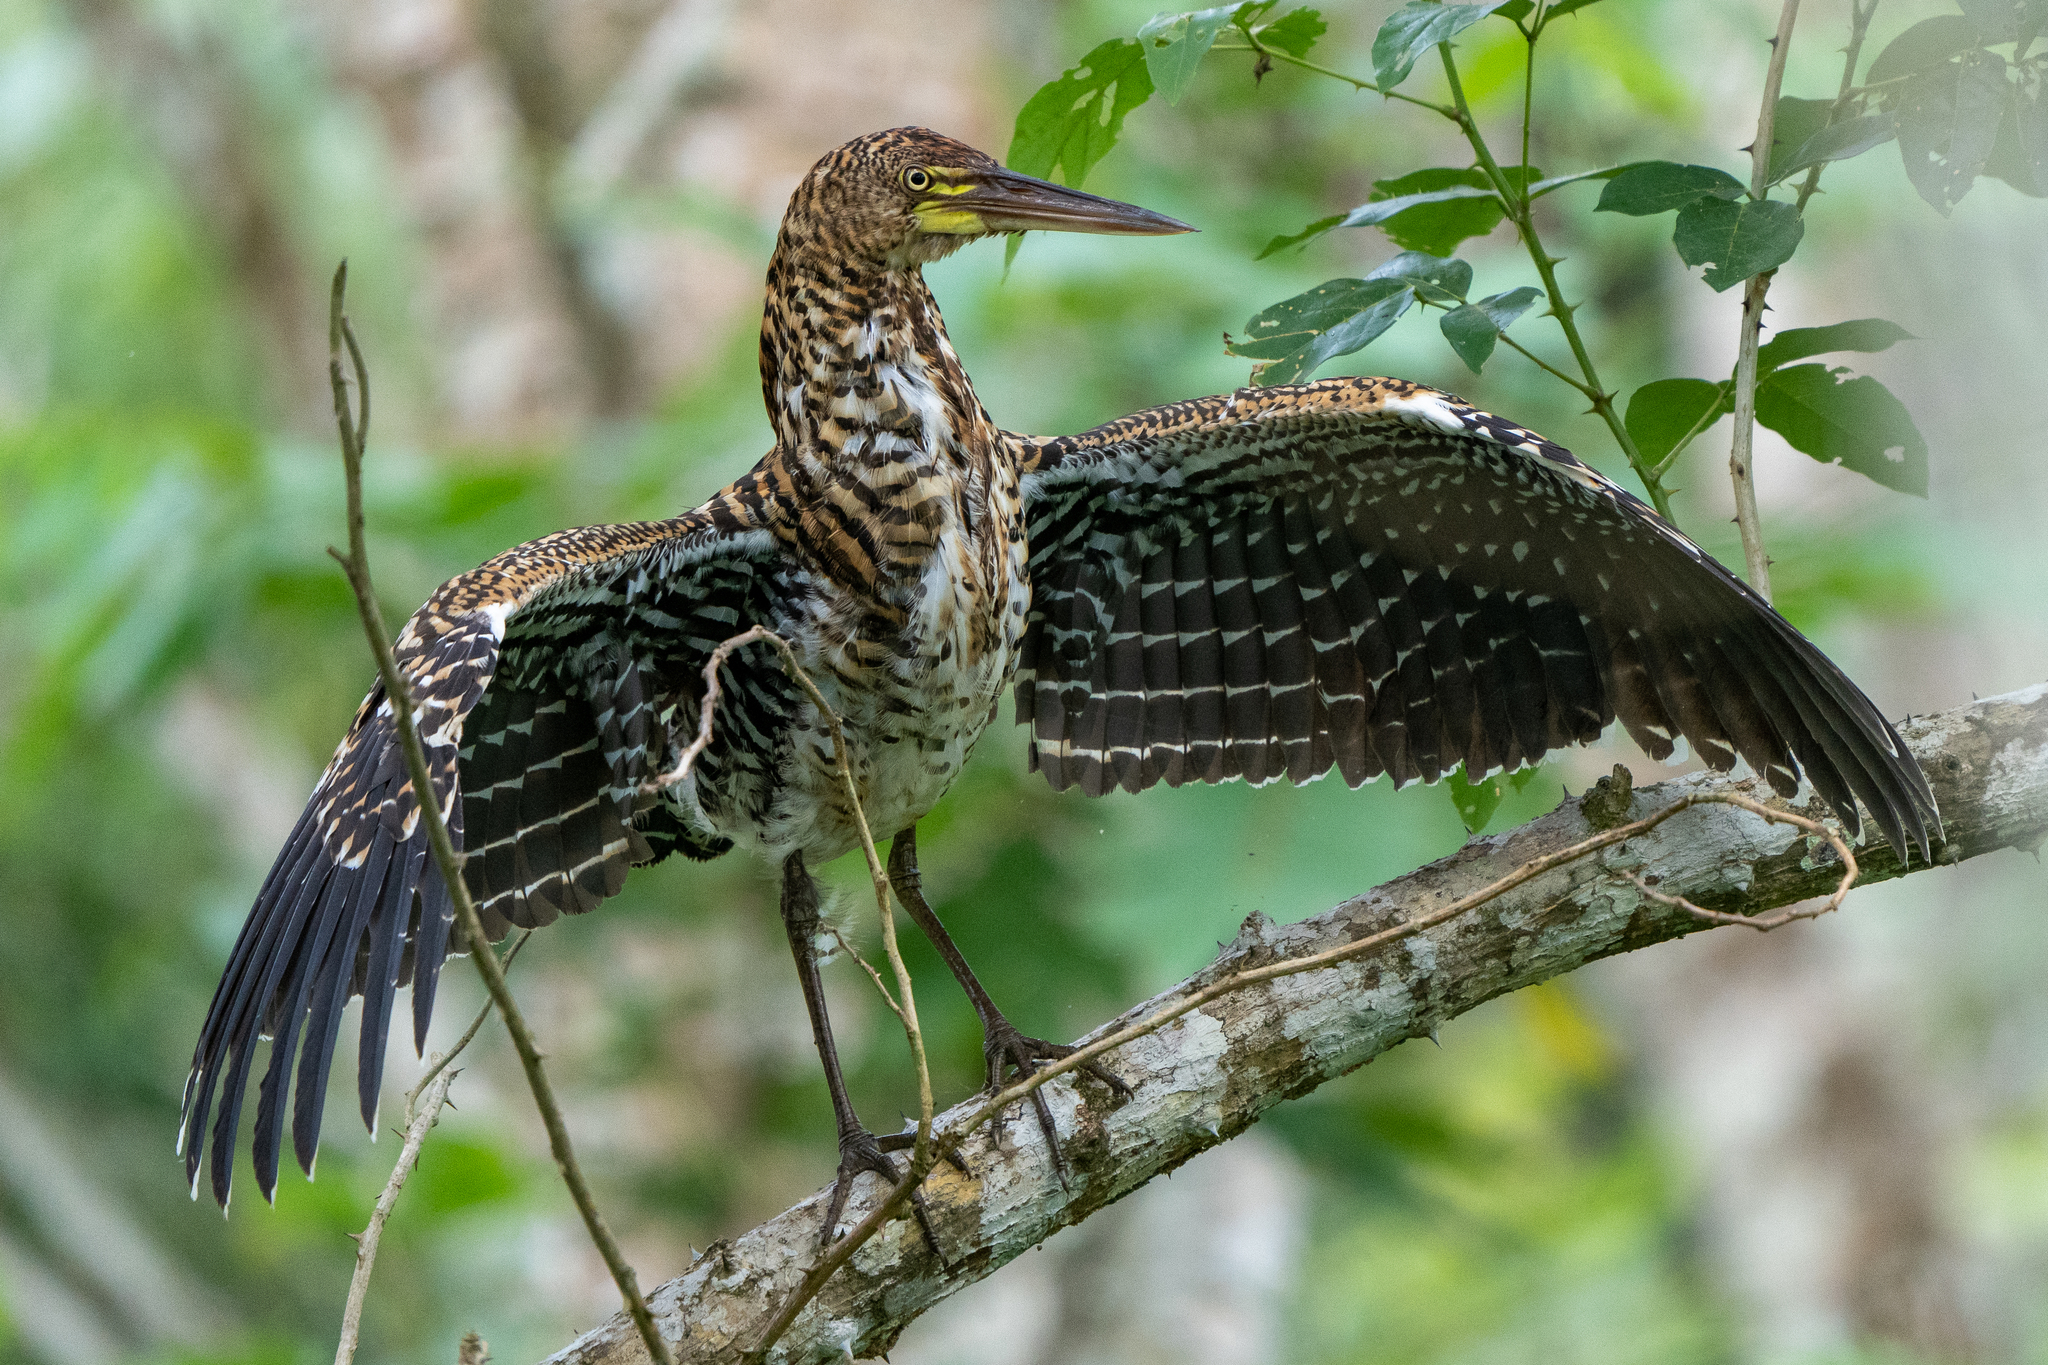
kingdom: Animalia
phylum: Chordata
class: Aves
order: Pelecaniformes
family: Ardeidae
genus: Tigrisoma
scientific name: Tigrisoma lineatum
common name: Rufescent tiger-heron
